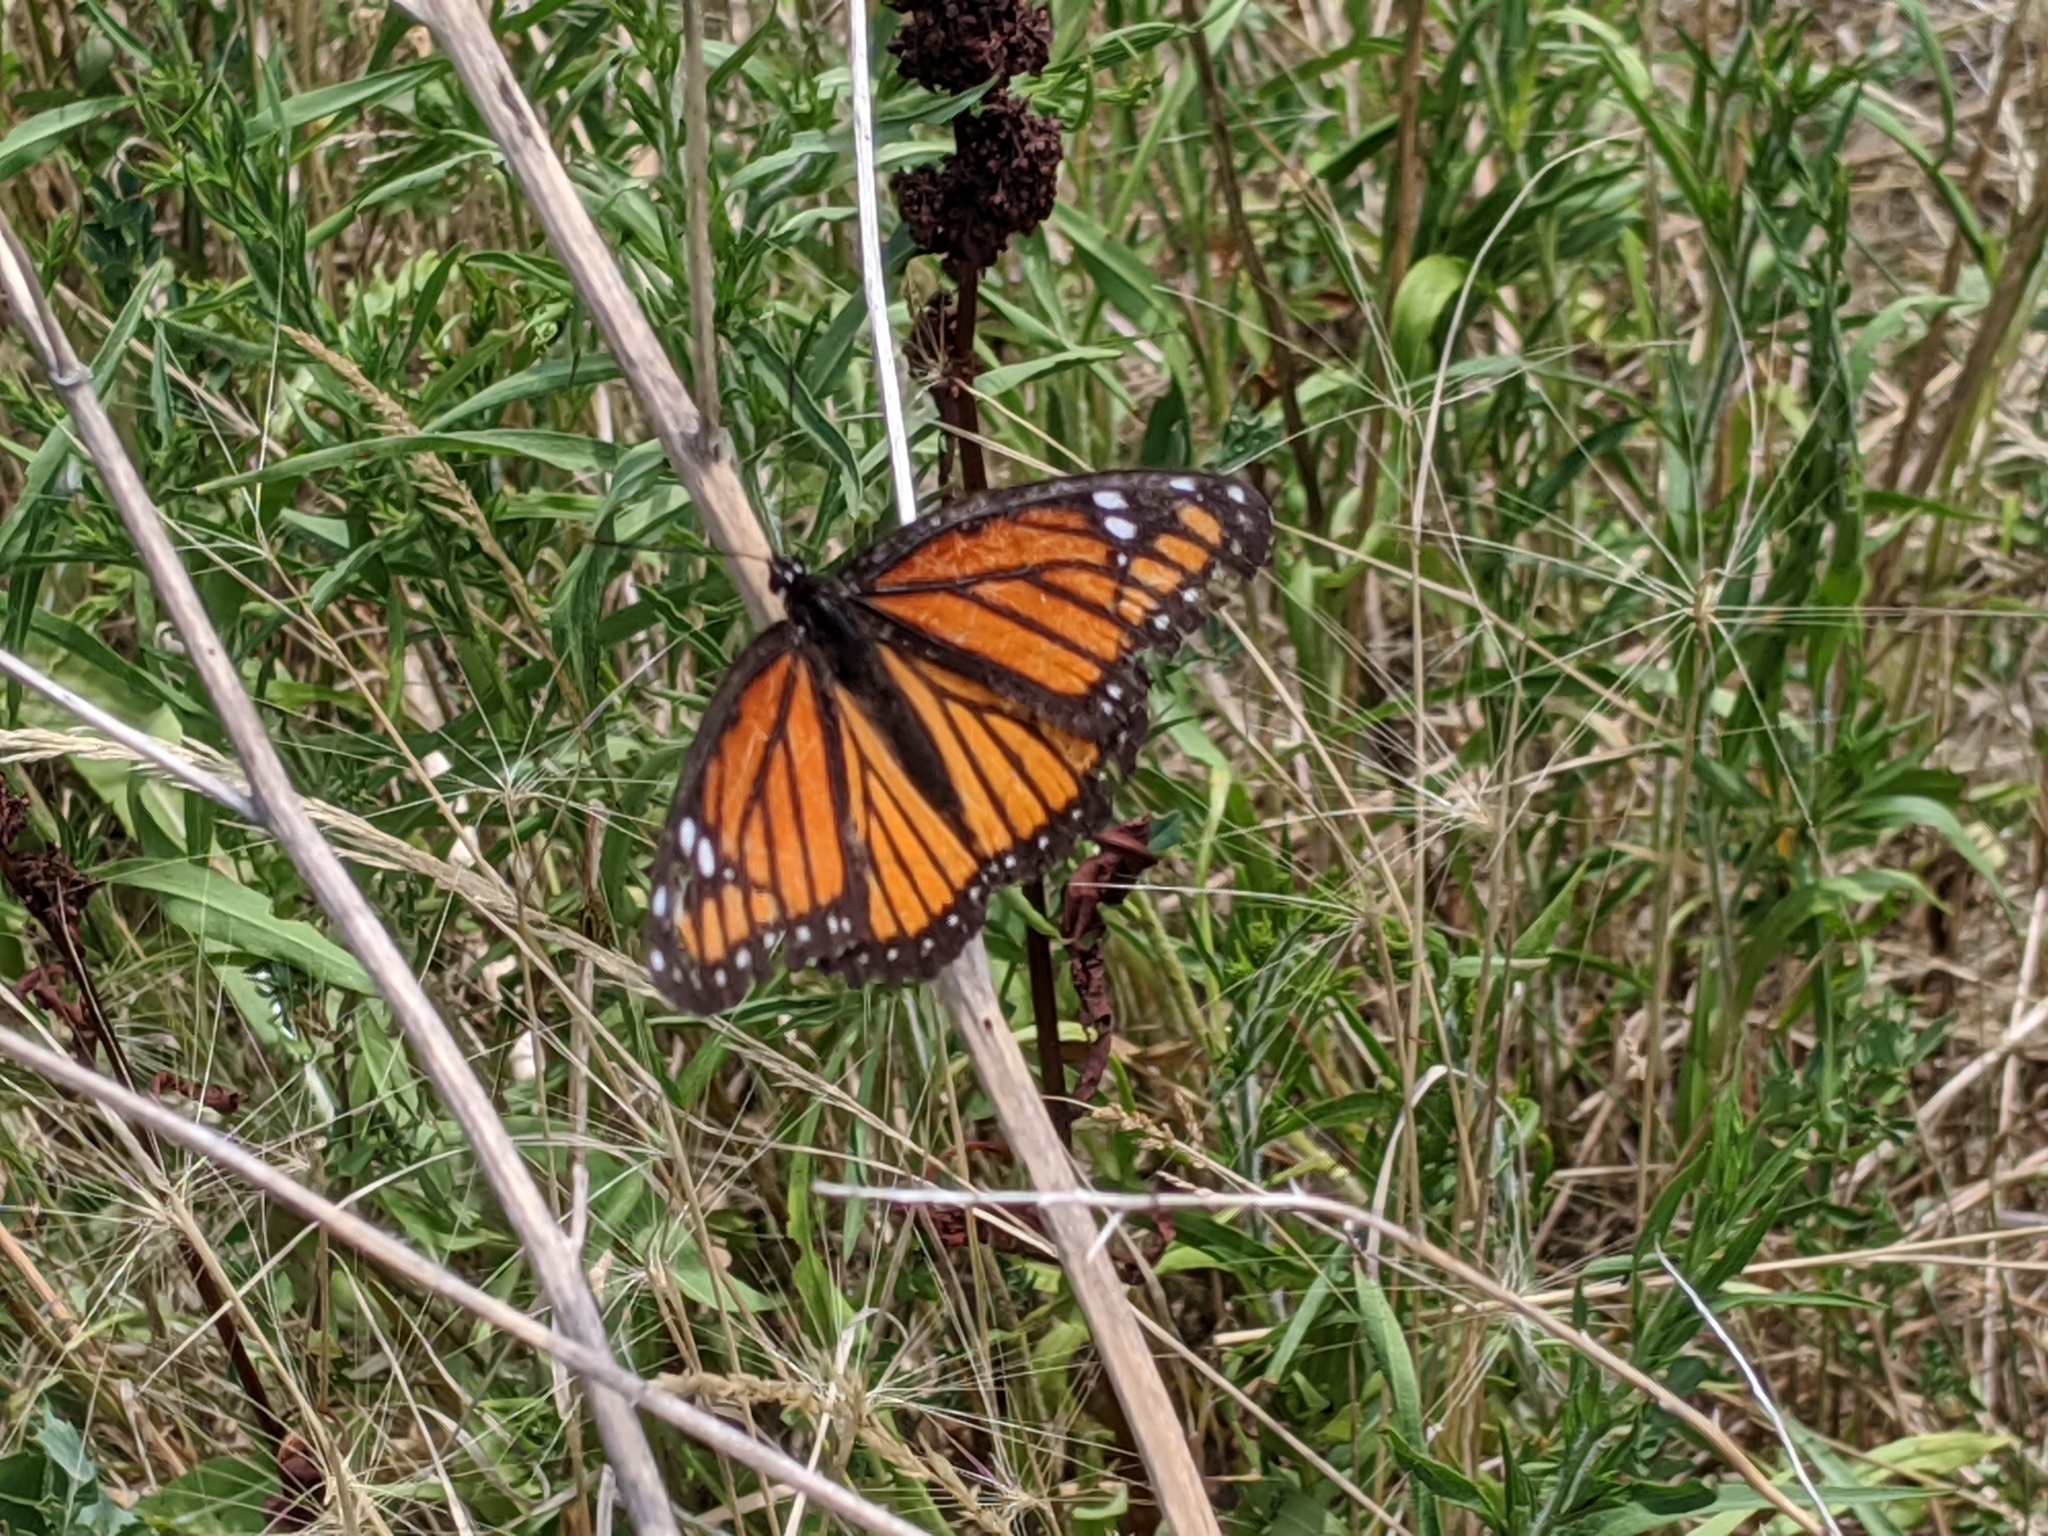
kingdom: Animalia
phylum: Arthropoda
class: Insecta
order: Lepidoptera
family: Nymphalidae
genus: Limenitis
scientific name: Limenitis archippus
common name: Viceroy
